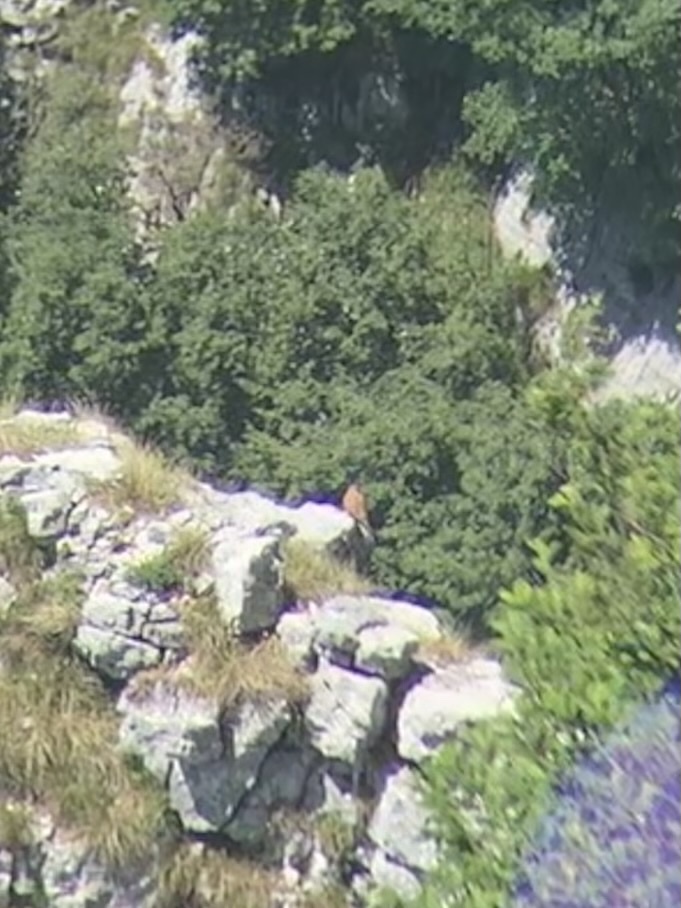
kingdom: Animalia
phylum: Chordata
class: Aves
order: Falconiformes
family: Falconidae
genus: Falco
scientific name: Falco tinnunculus
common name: Common kestrel
